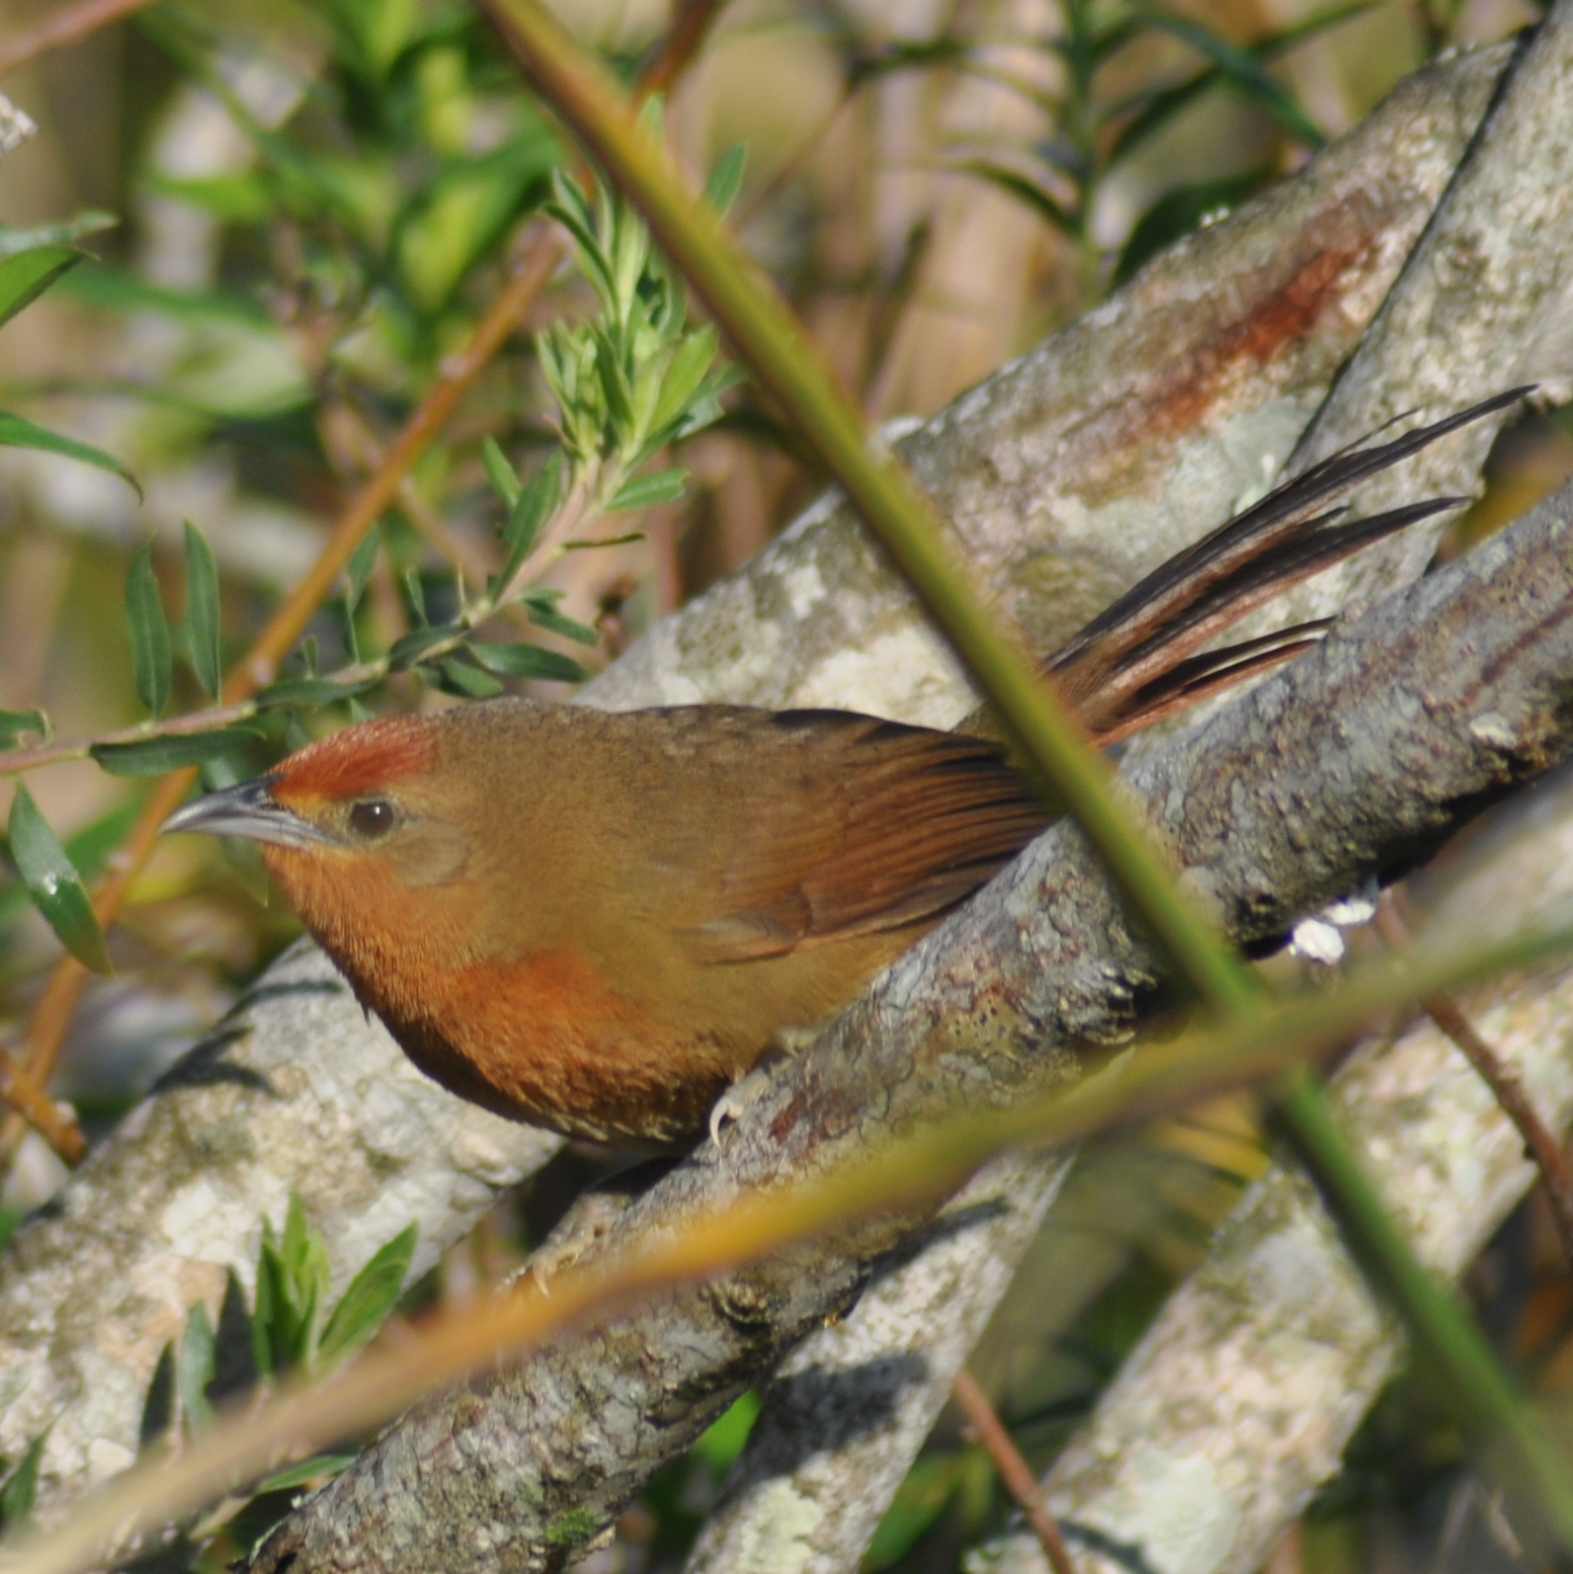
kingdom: Animalia
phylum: Chordata
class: Aves
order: Passeriformes
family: Furnariidae
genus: Phacellodomus
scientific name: Phacellodomus erythrophthalmus
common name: Orange-eyed thornbird
